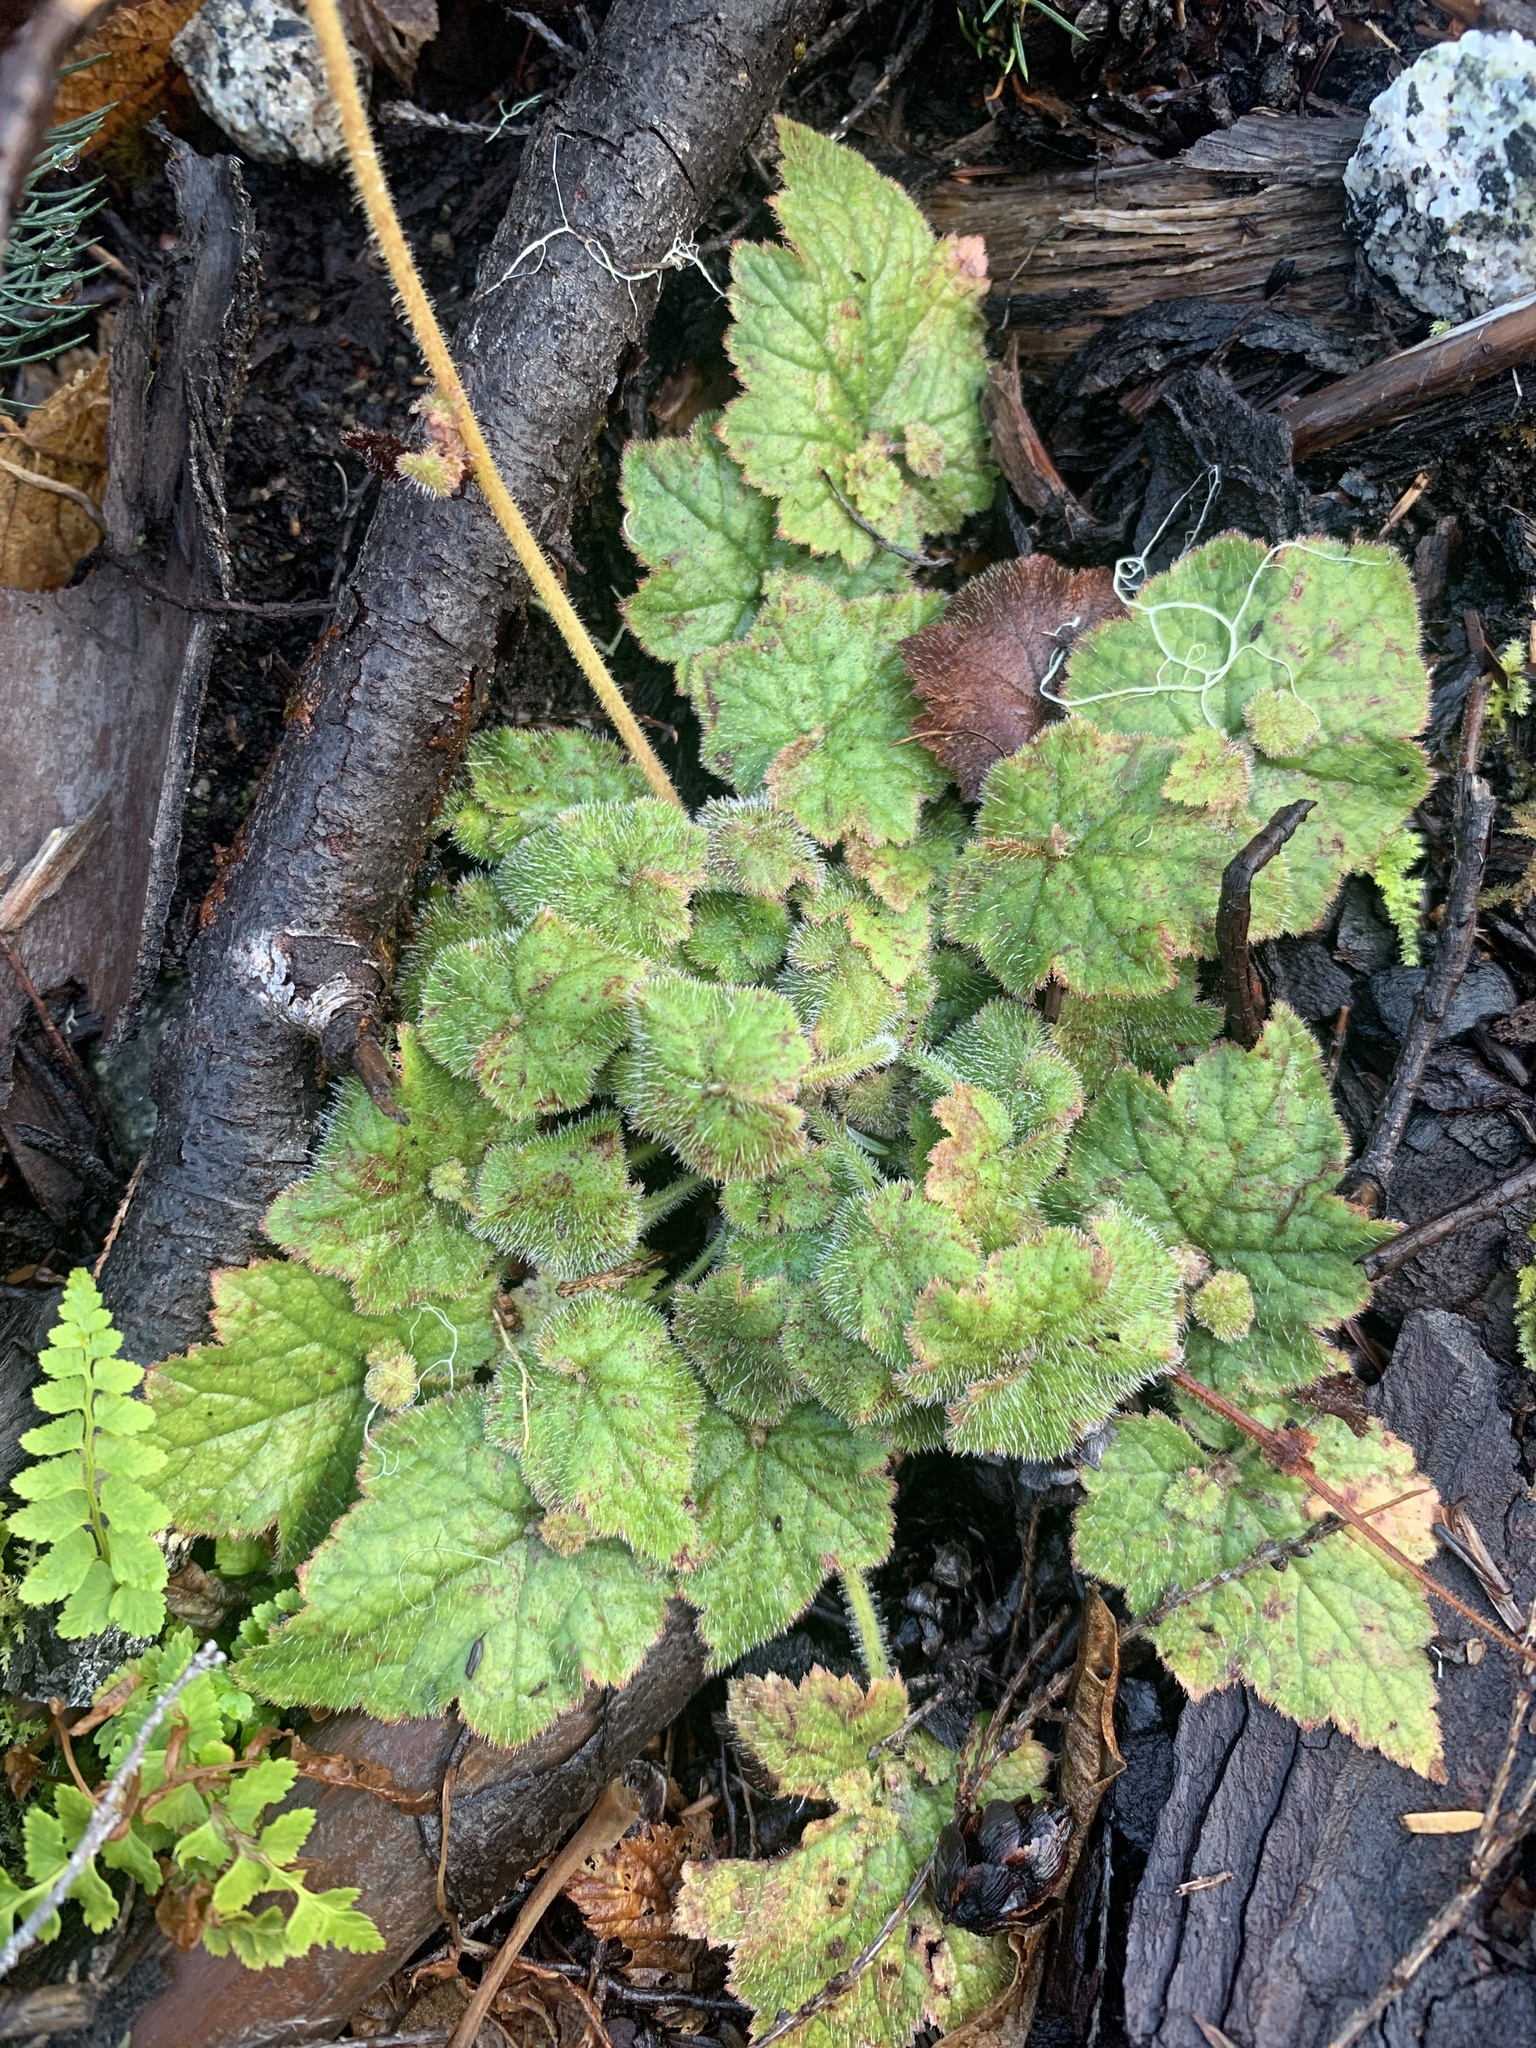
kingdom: Plantae
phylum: Tracheophyta
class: Magnoliopsida
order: Saxifragales
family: Saxifragaceae
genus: Tolmiea
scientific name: Tolmiea menziesii
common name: Pick-a-back-plant
